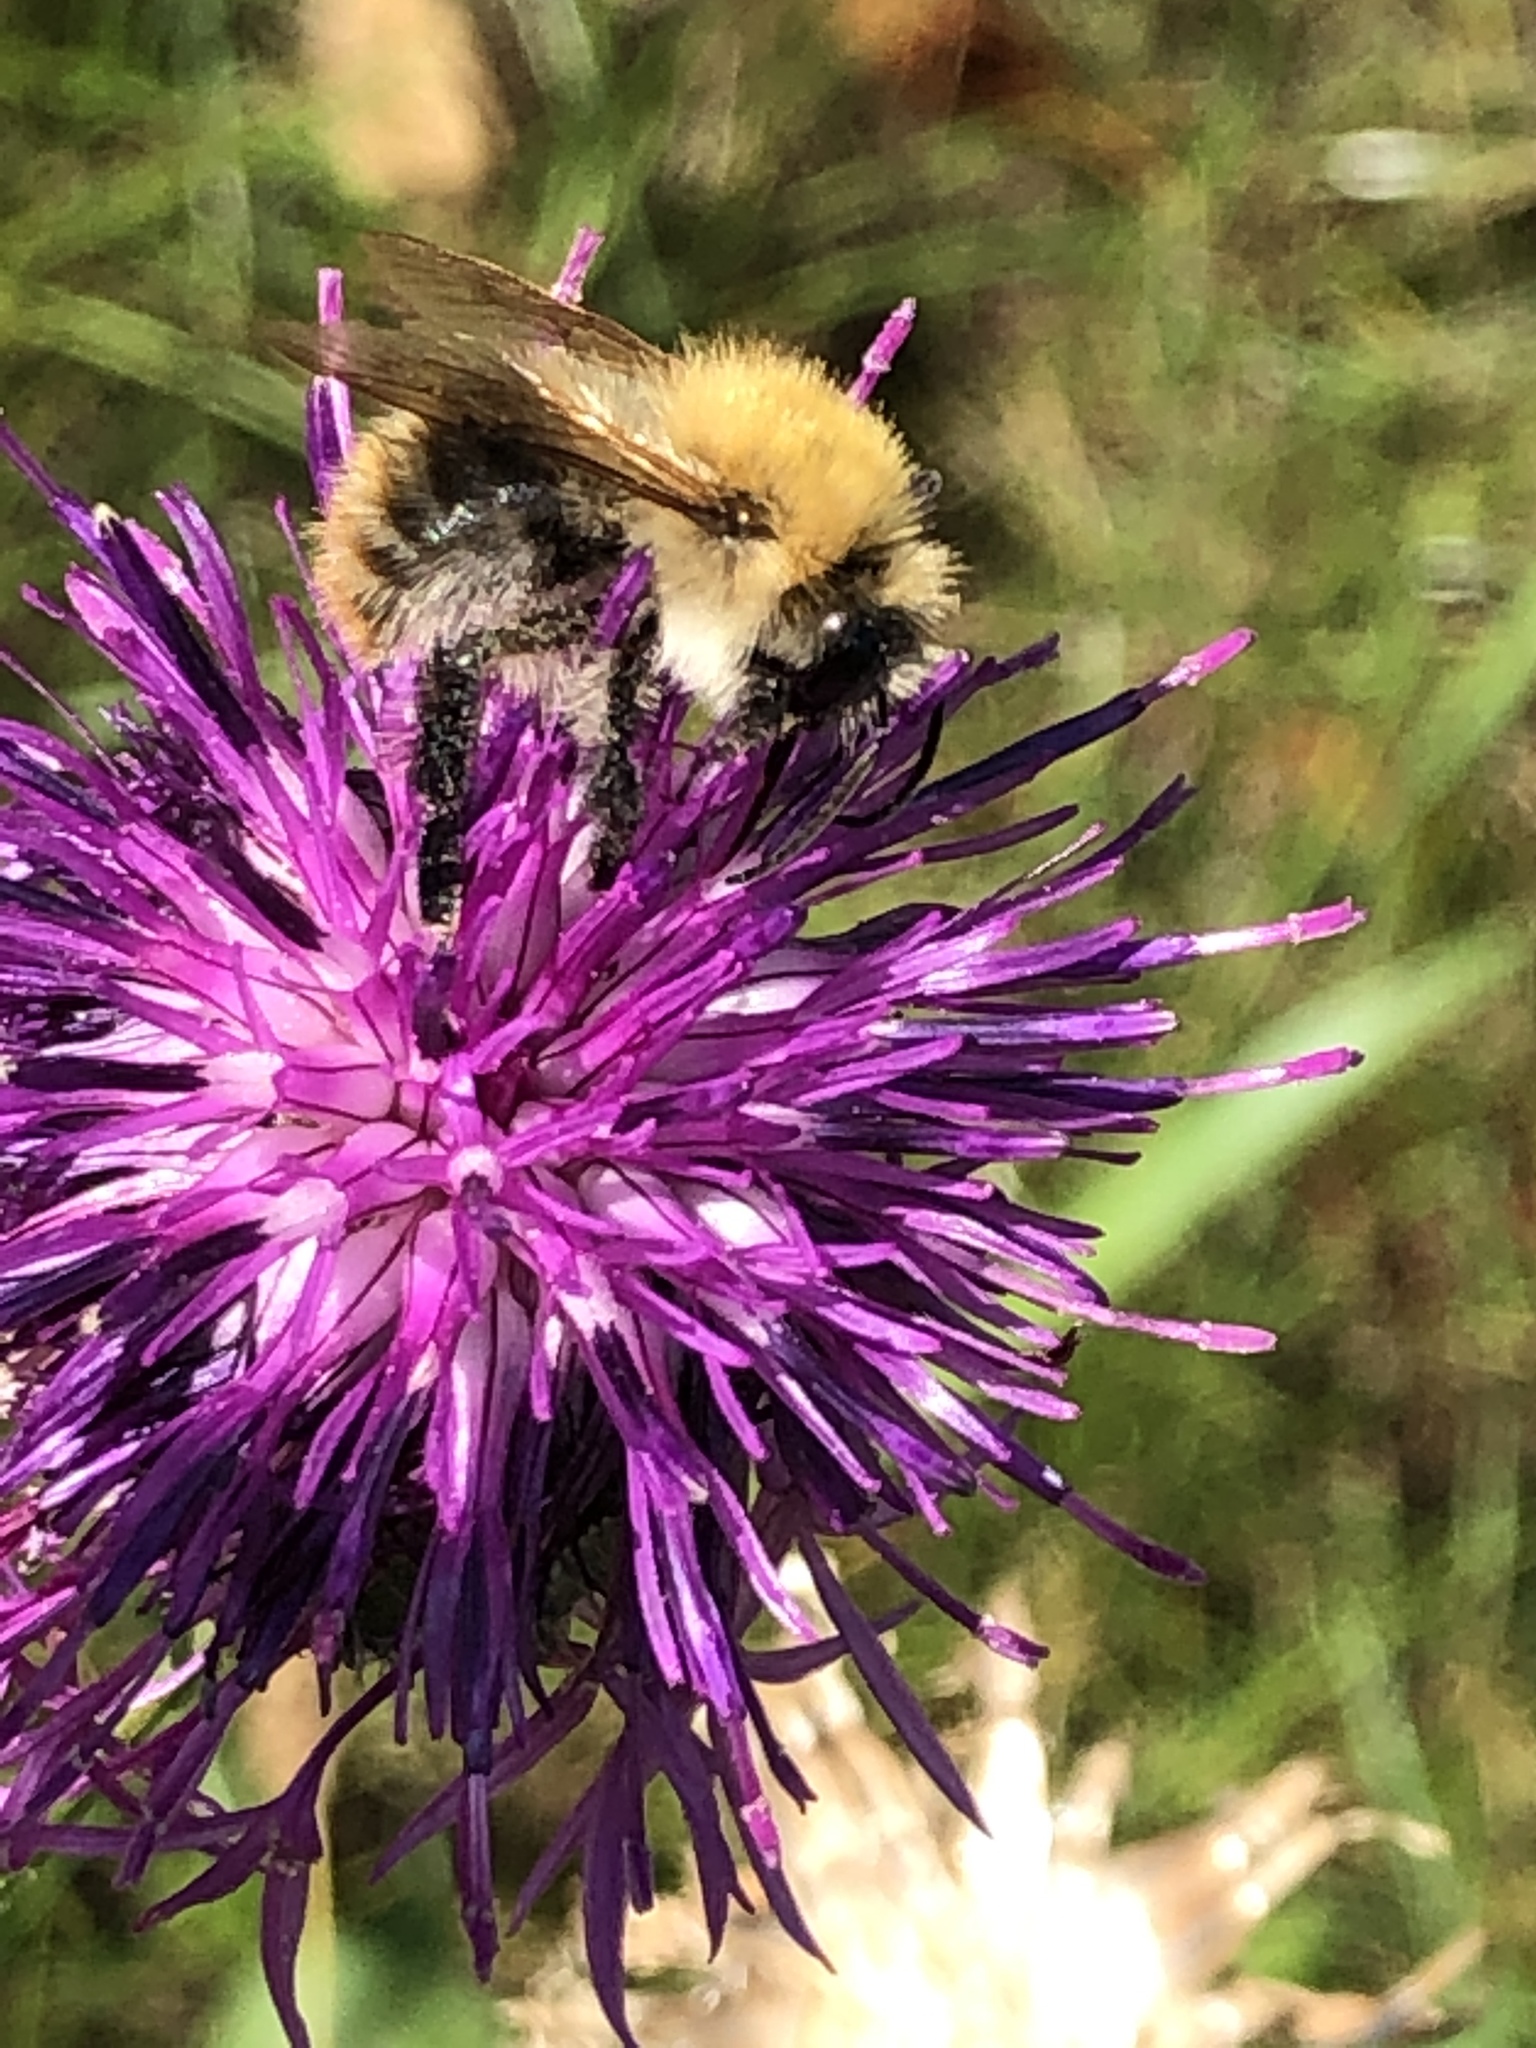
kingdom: Animalia
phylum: Arthropoda
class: Insecta
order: Hymenoptera
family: Apidae
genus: Bombus
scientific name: Bombus pascuorum
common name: Common carder bee
